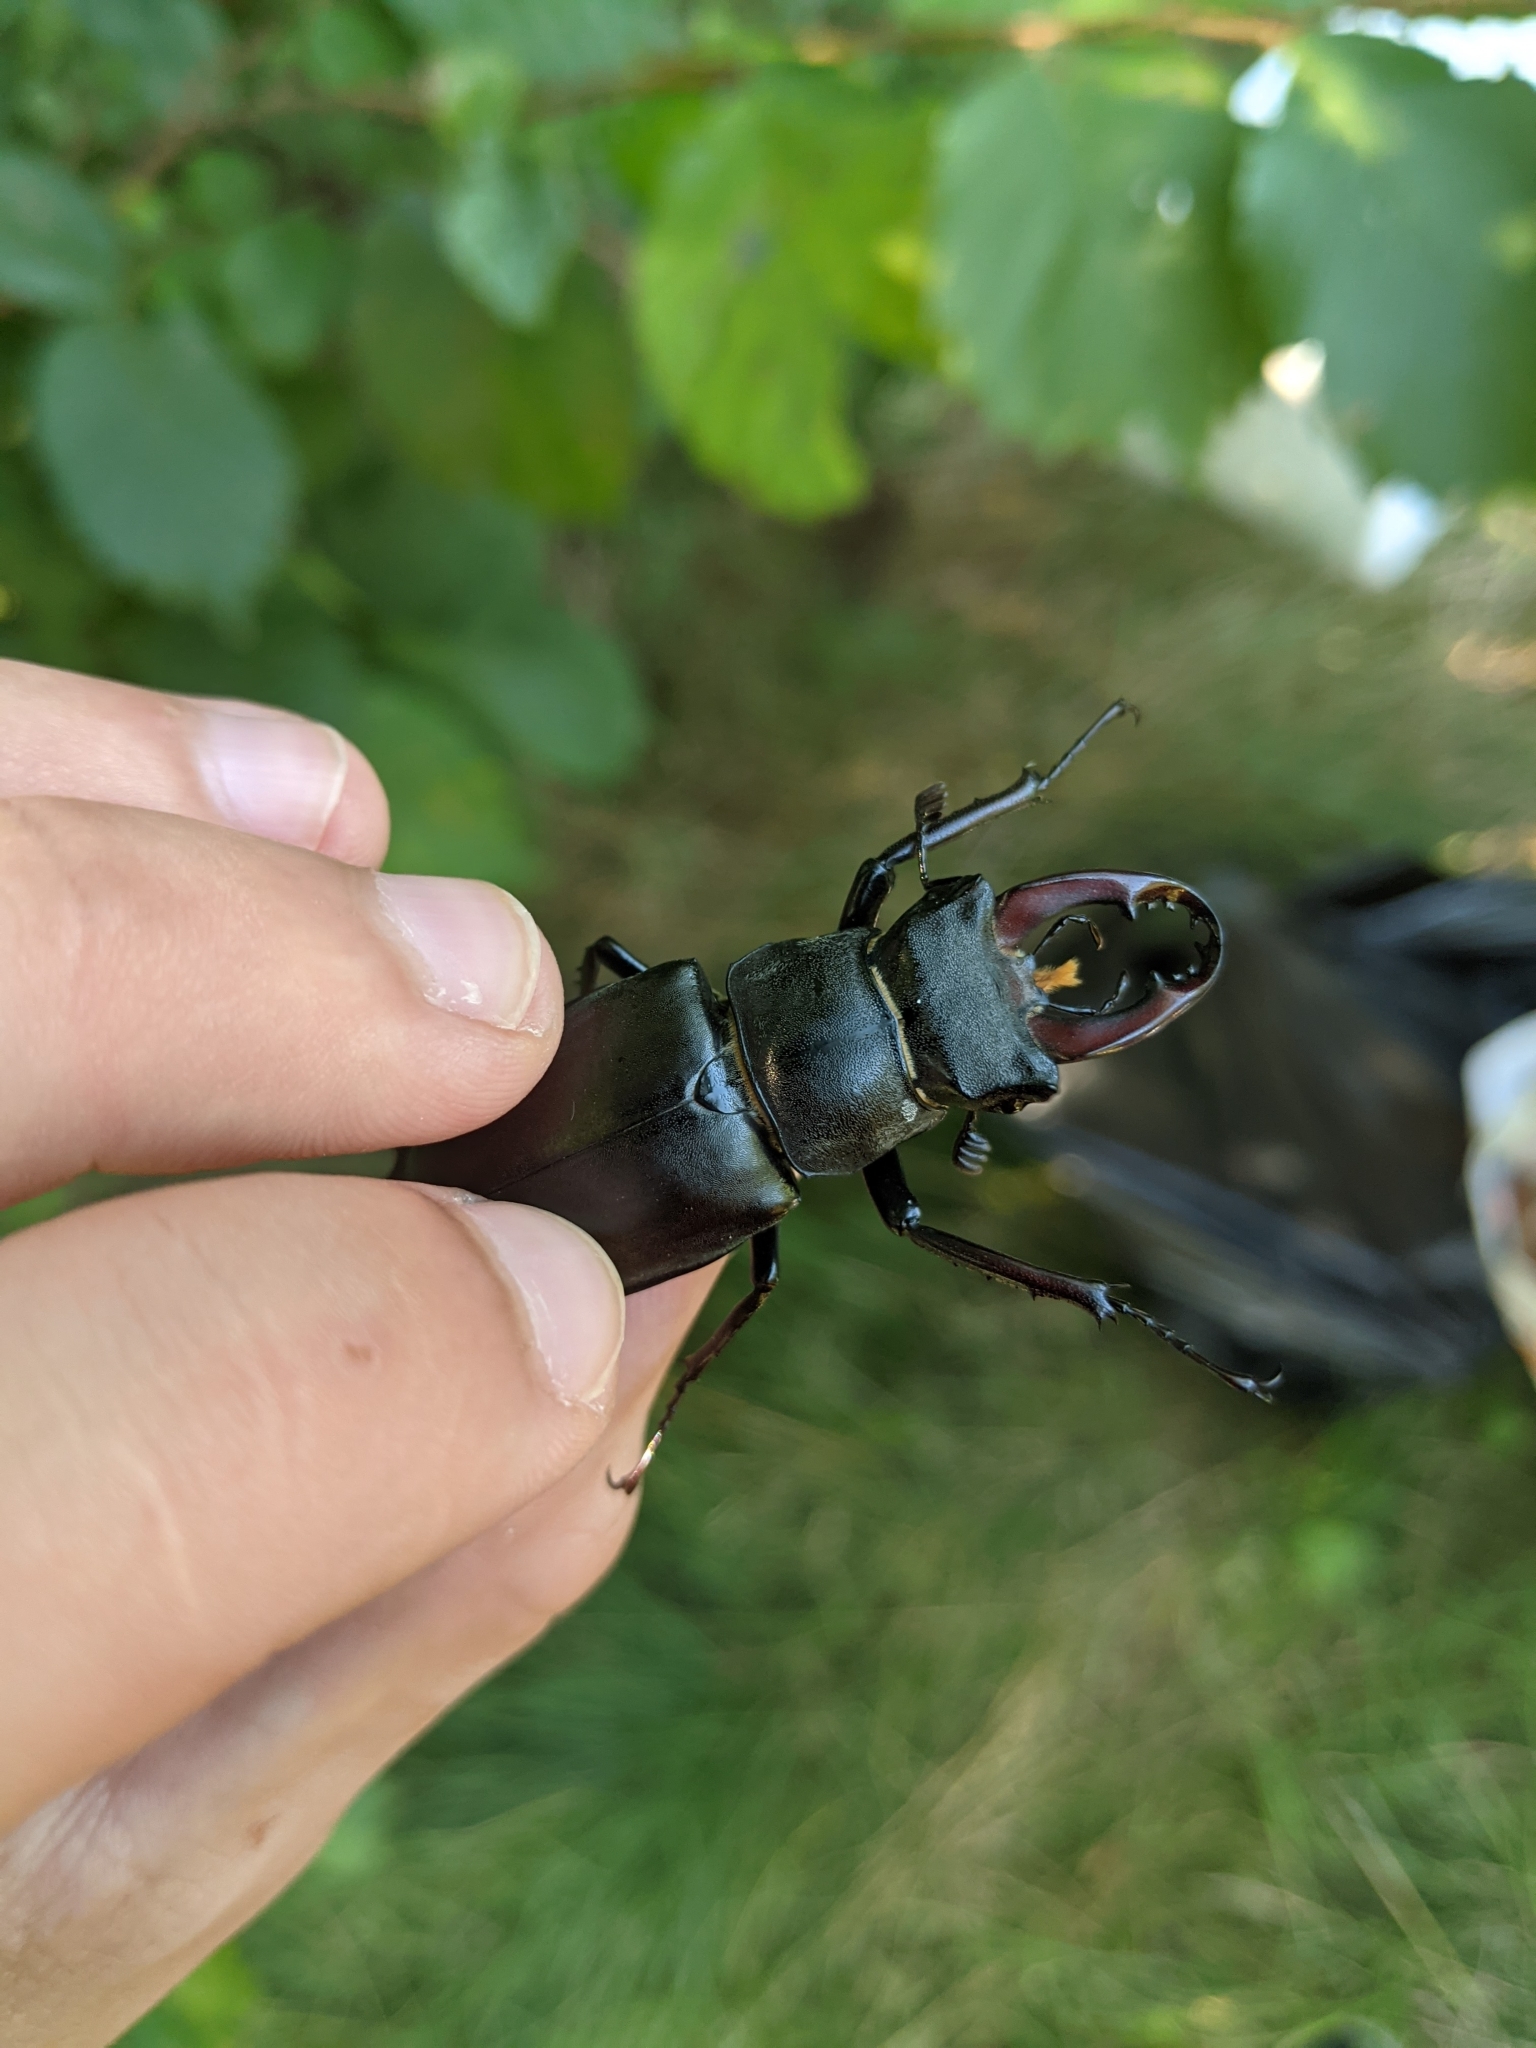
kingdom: Animalia
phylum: Arthropoda
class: Insecta
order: Coleoptera
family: Lucanidae
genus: Lucanus
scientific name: Lucanus cervus
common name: Stag beetle
